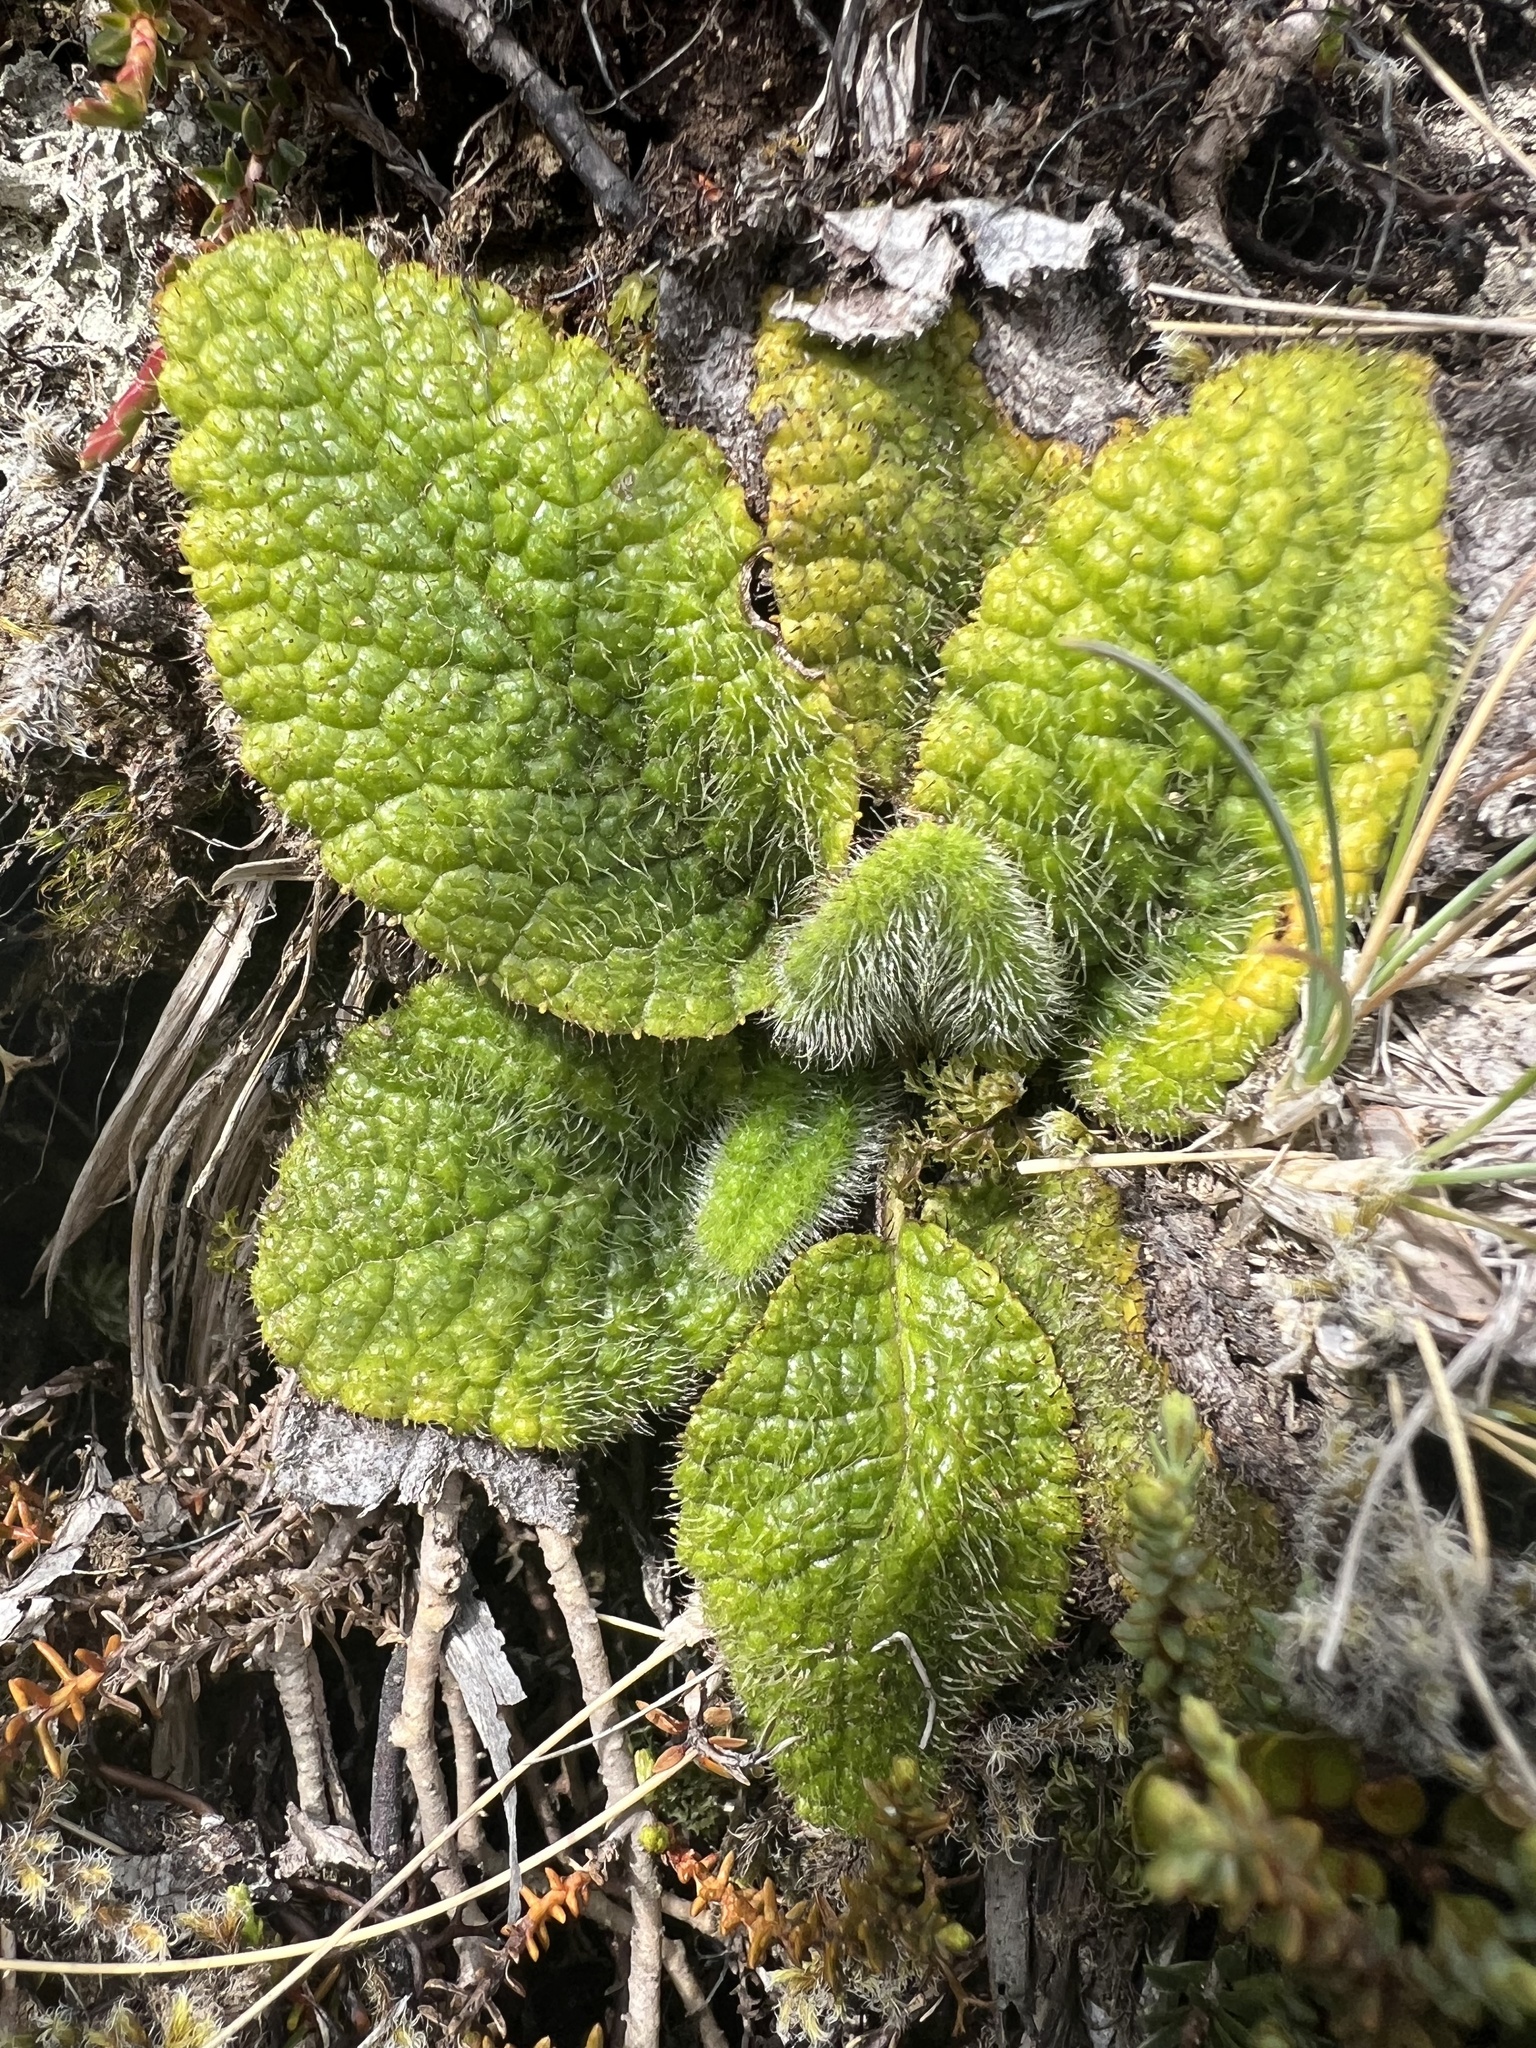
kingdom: Plantae
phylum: Tracheophyta
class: Magnoliopsida
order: Asterales
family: Asteraceae
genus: Brachyglottis
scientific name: Brachyglottis lagopus
